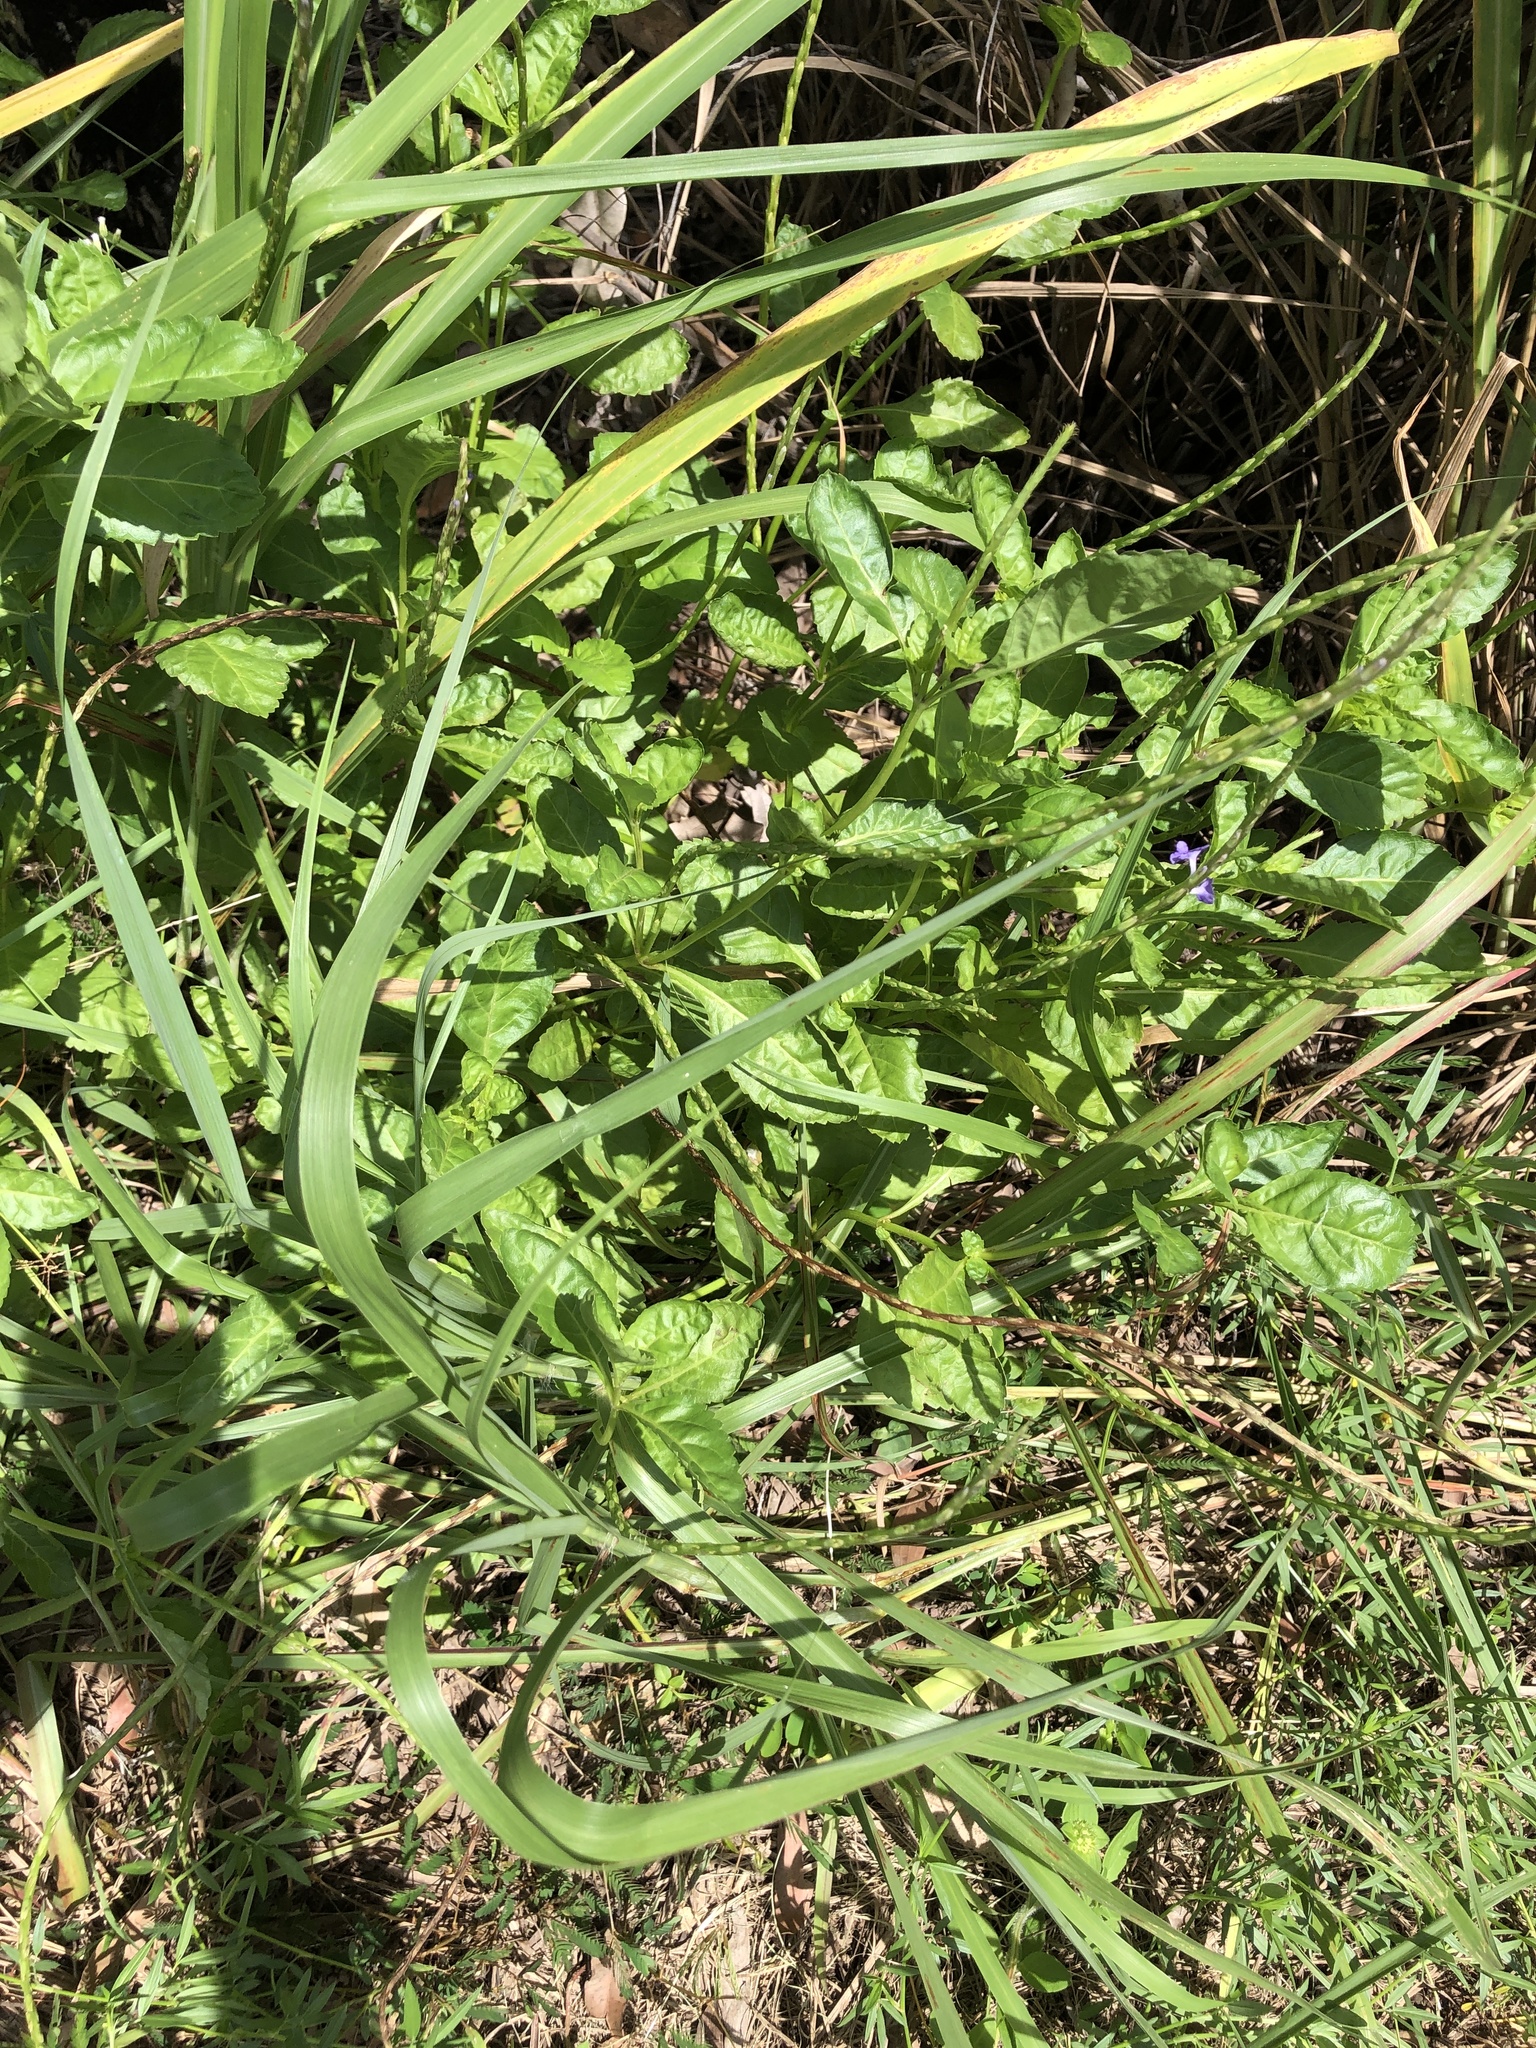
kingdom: Plantae
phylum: Tracheophyta
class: Magnoliopsida
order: Lamiales
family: Verbenaceae
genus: Stachytarpheta
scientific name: Stachytarpheta jamaicensis
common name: Light-blue snakeweed
